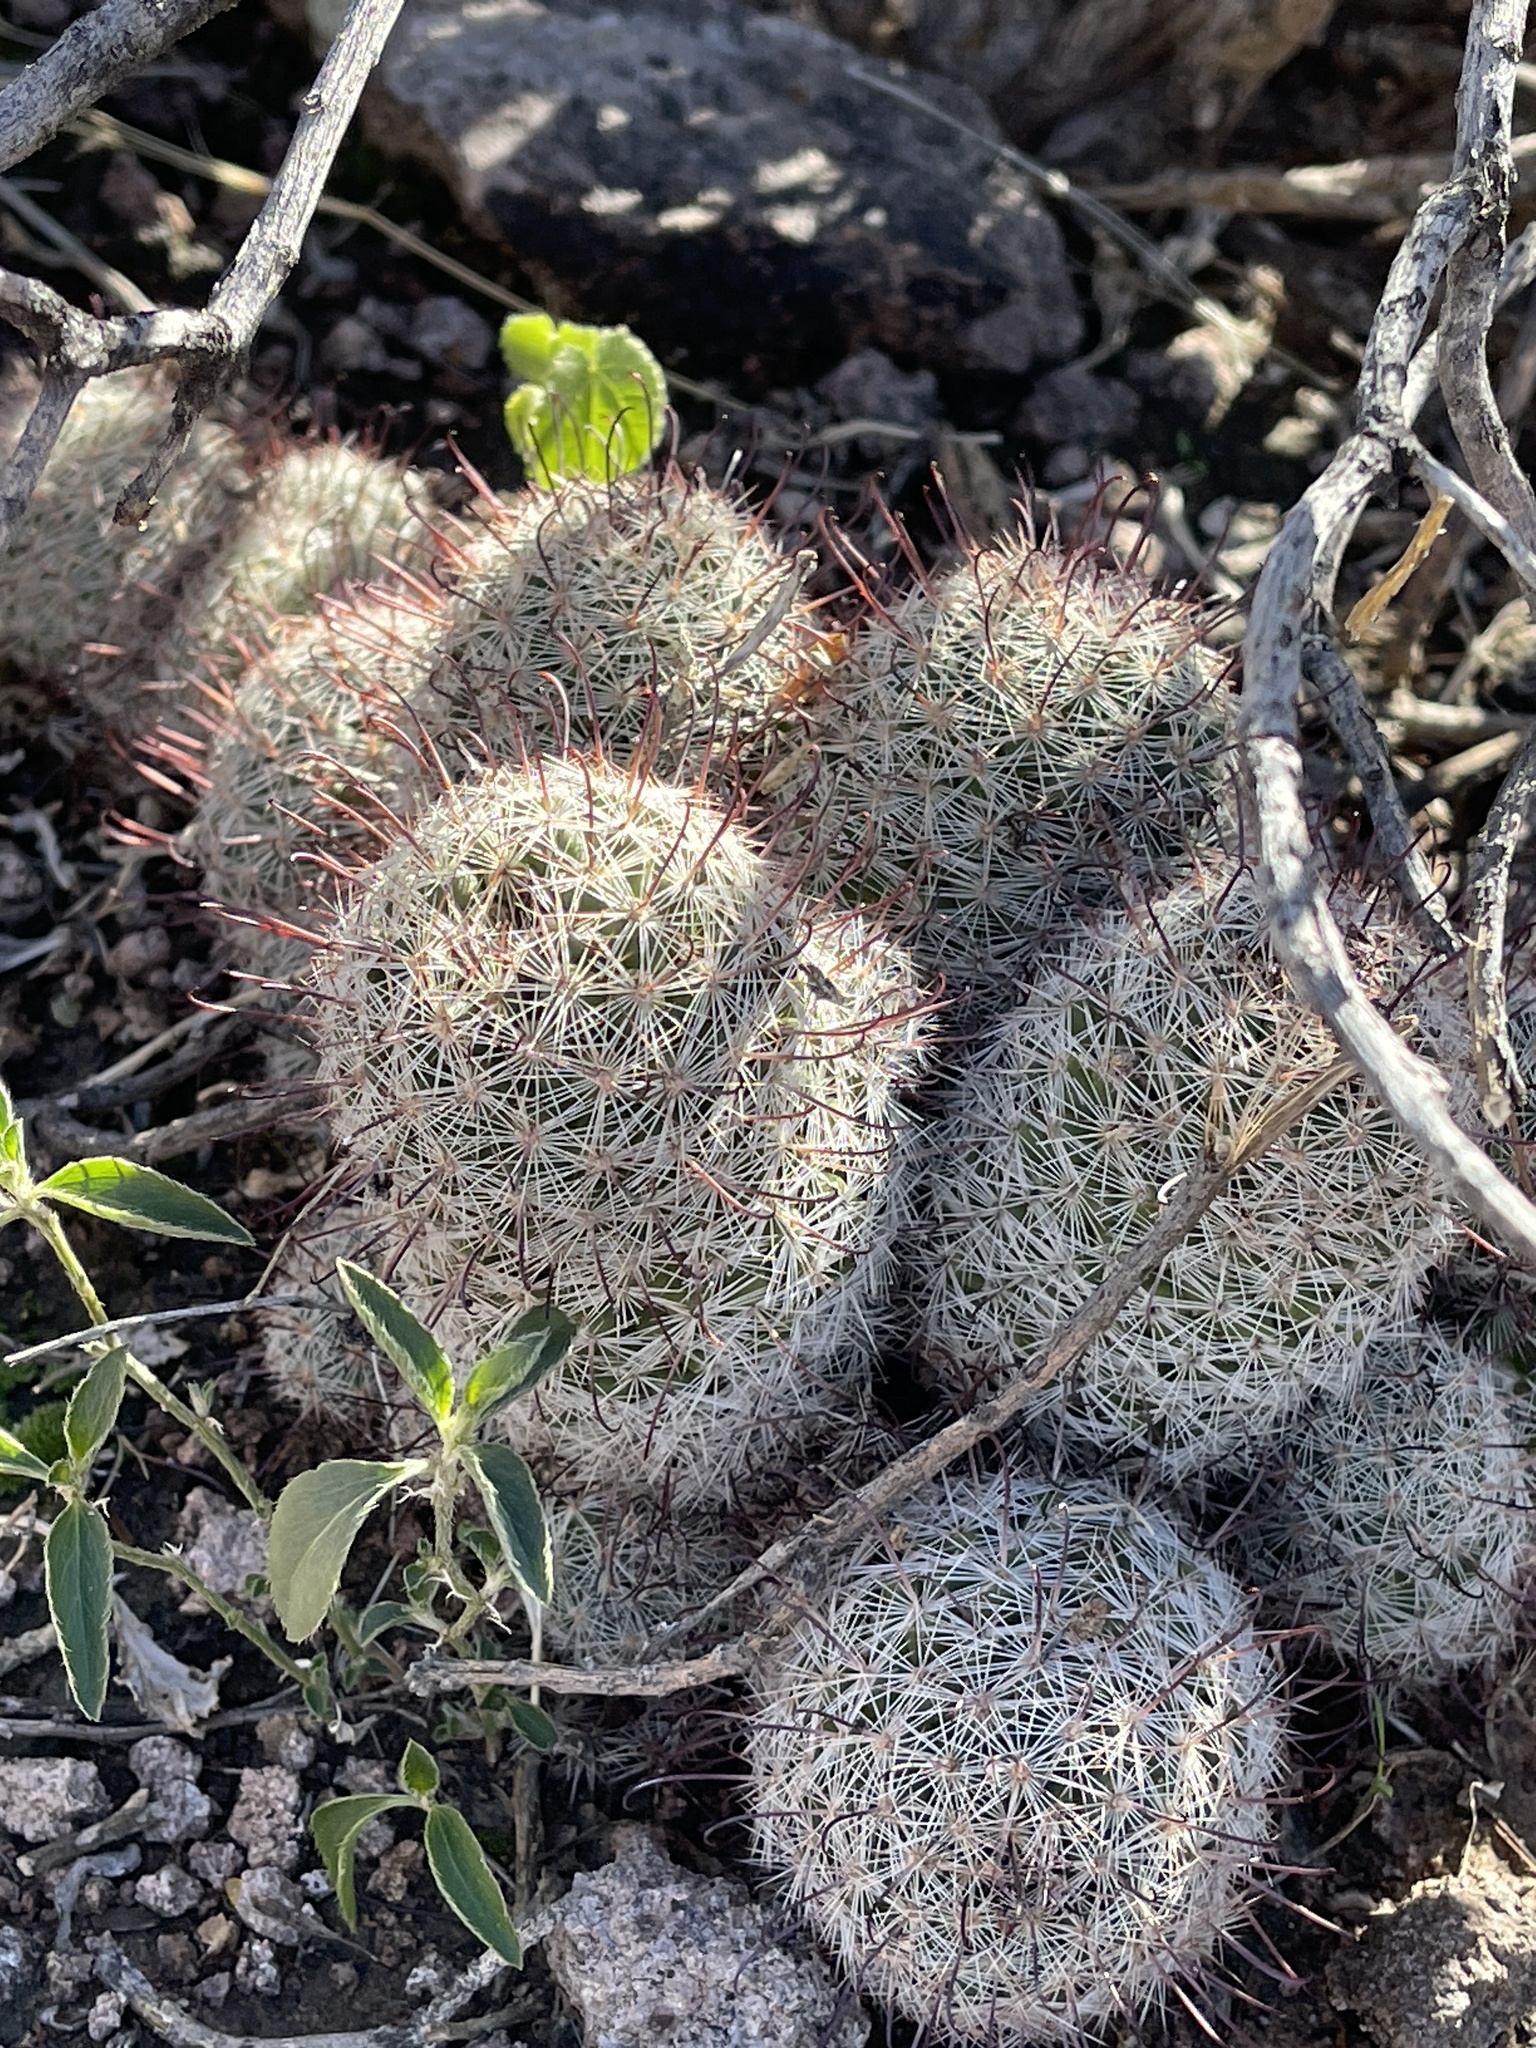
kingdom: Plantae
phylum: Tracheophyta
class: Magnoliopsida
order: Caryophyllales
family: Cactaceae
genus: Cochemiea
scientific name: Cochemiea grahamii
